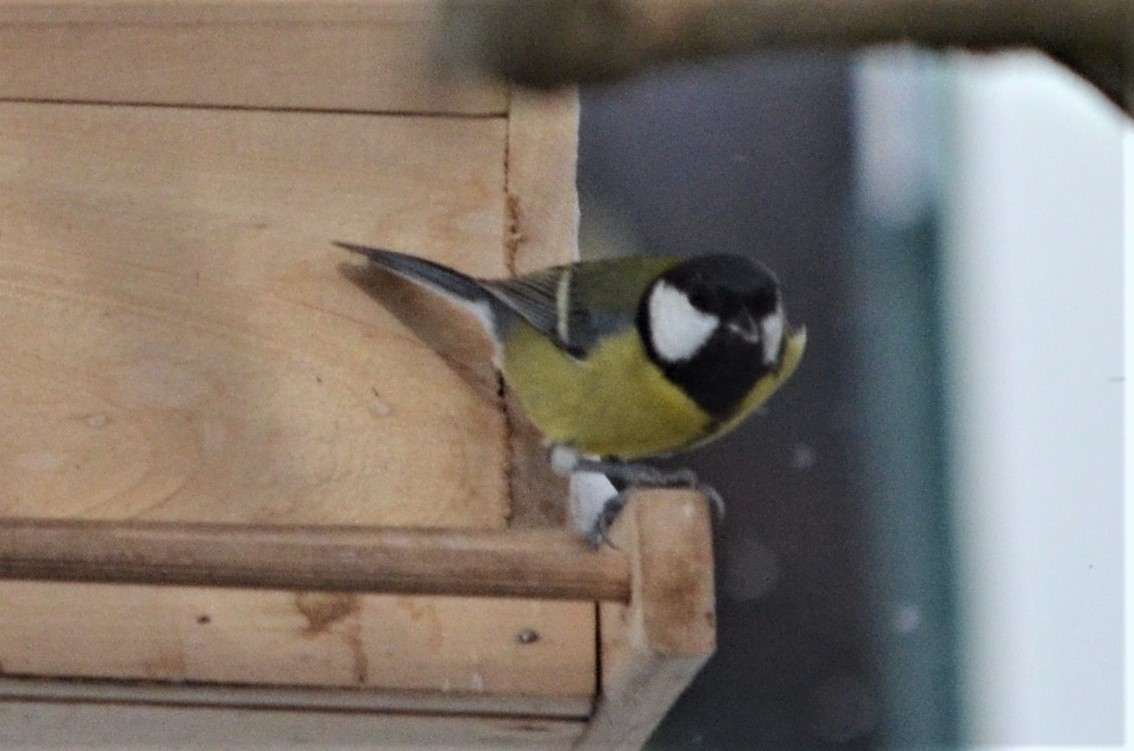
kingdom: Animalia
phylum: Chordata
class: Aves
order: Passeriformes
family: Paridae
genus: Parus
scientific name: Parus major
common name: Great tit
